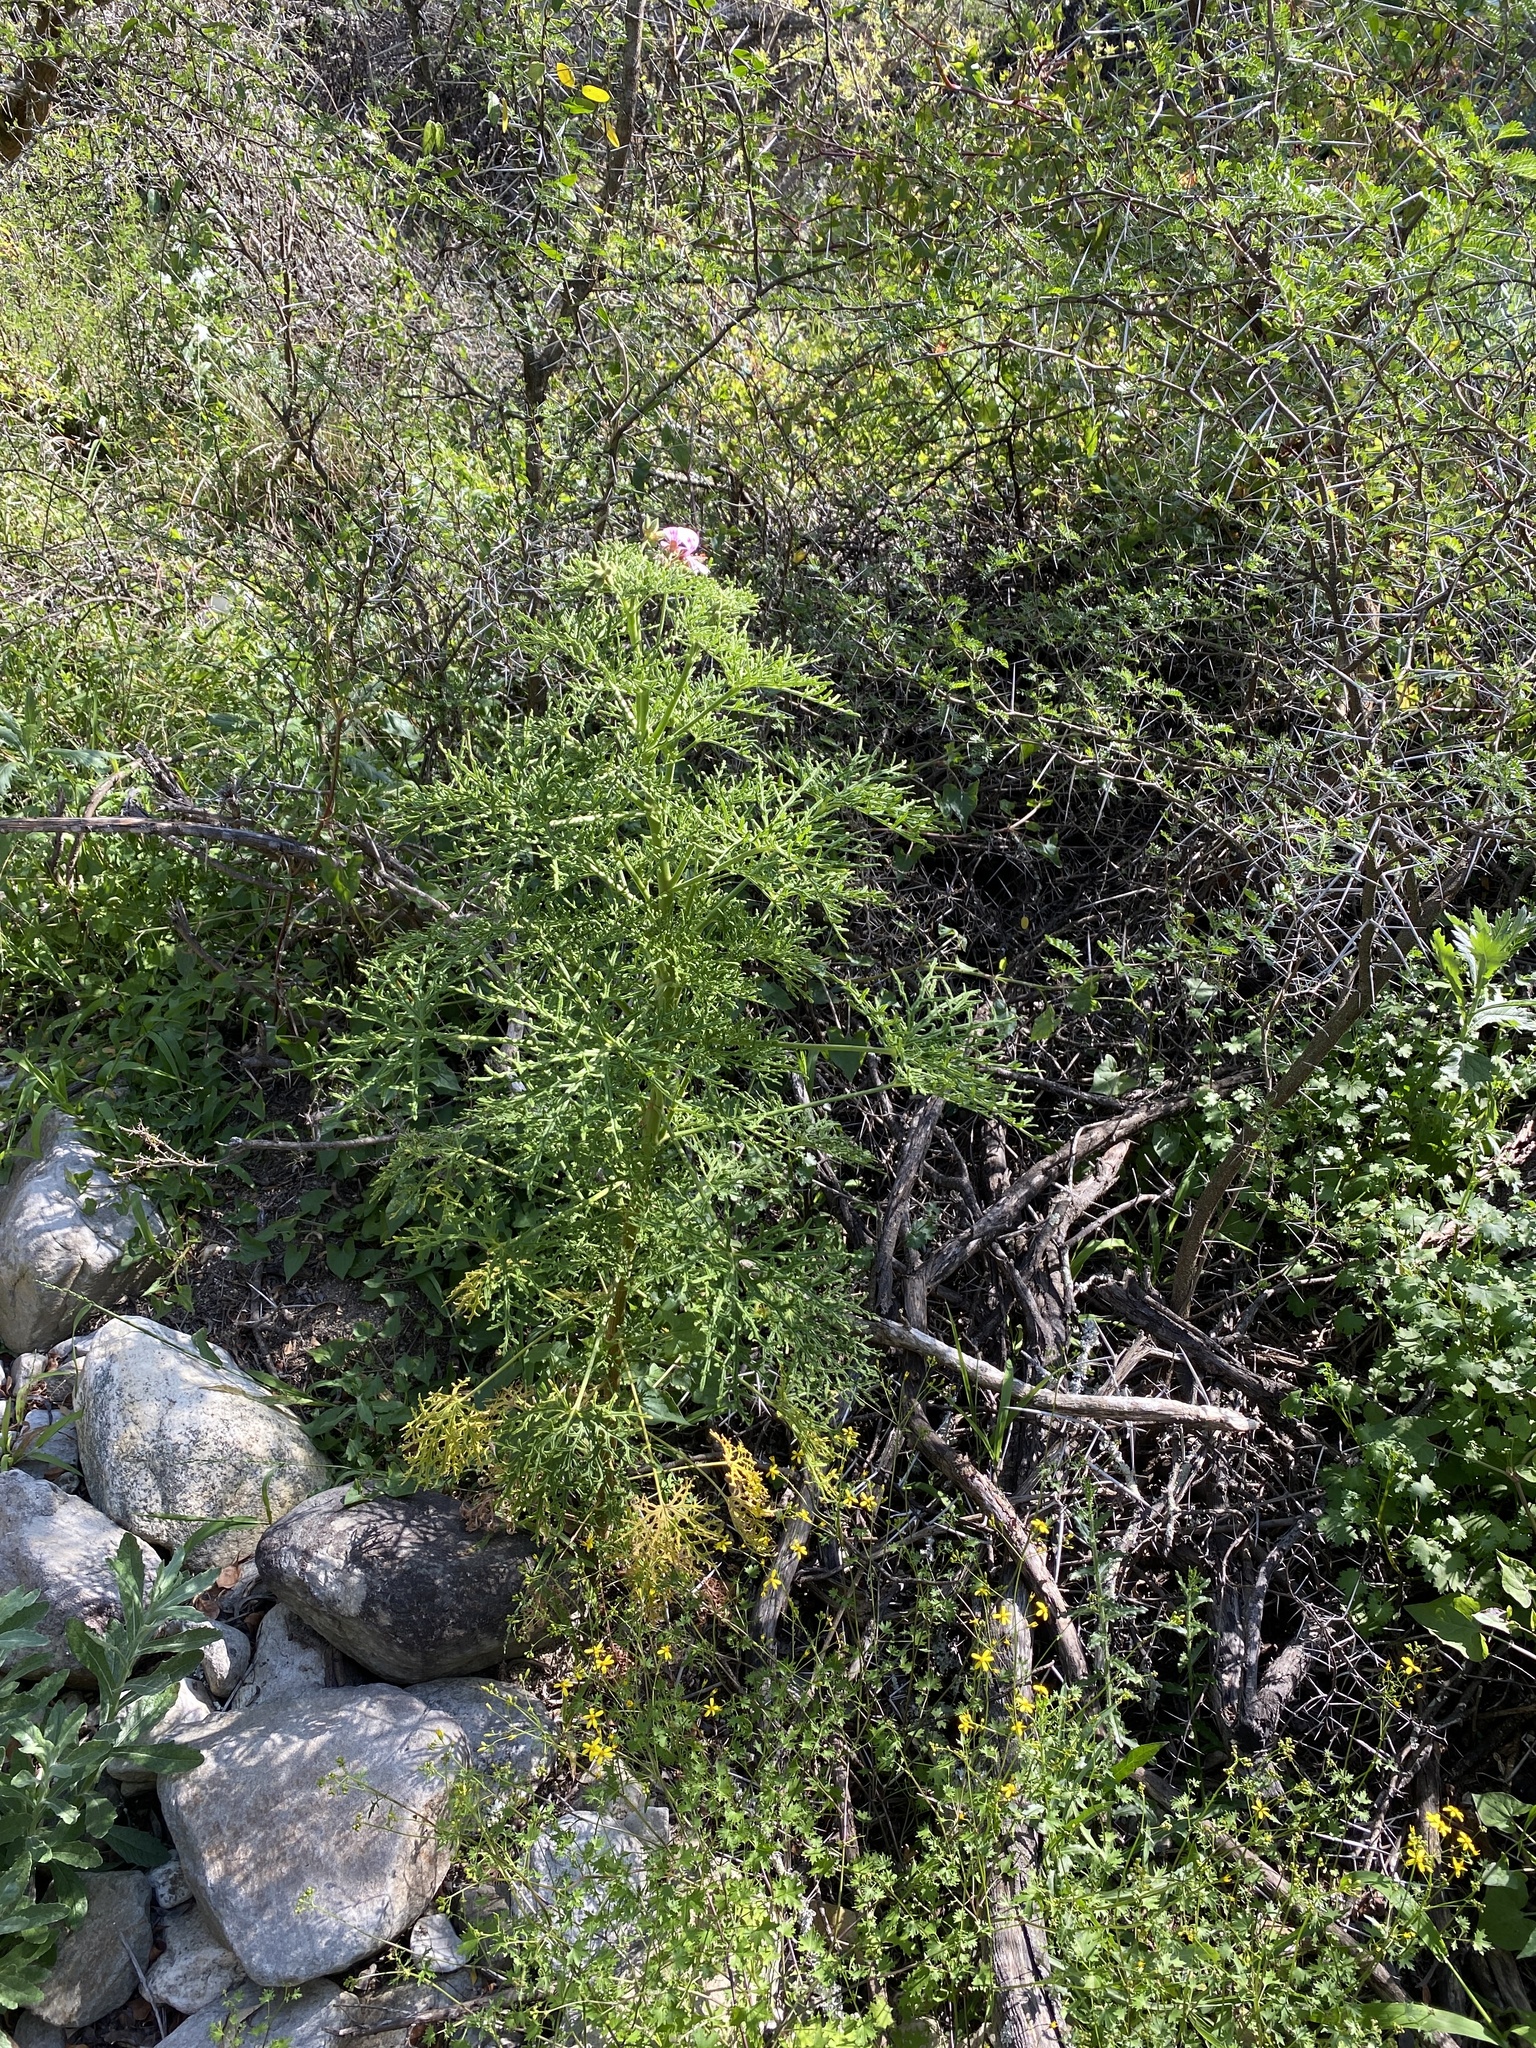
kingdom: Plantae
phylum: Tracheophyta
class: Magnoliopsida
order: Geraniales
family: Geraniaceae
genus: Pelargonium
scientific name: Pelargonium radens
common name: Rasp-leaf pelargonium
